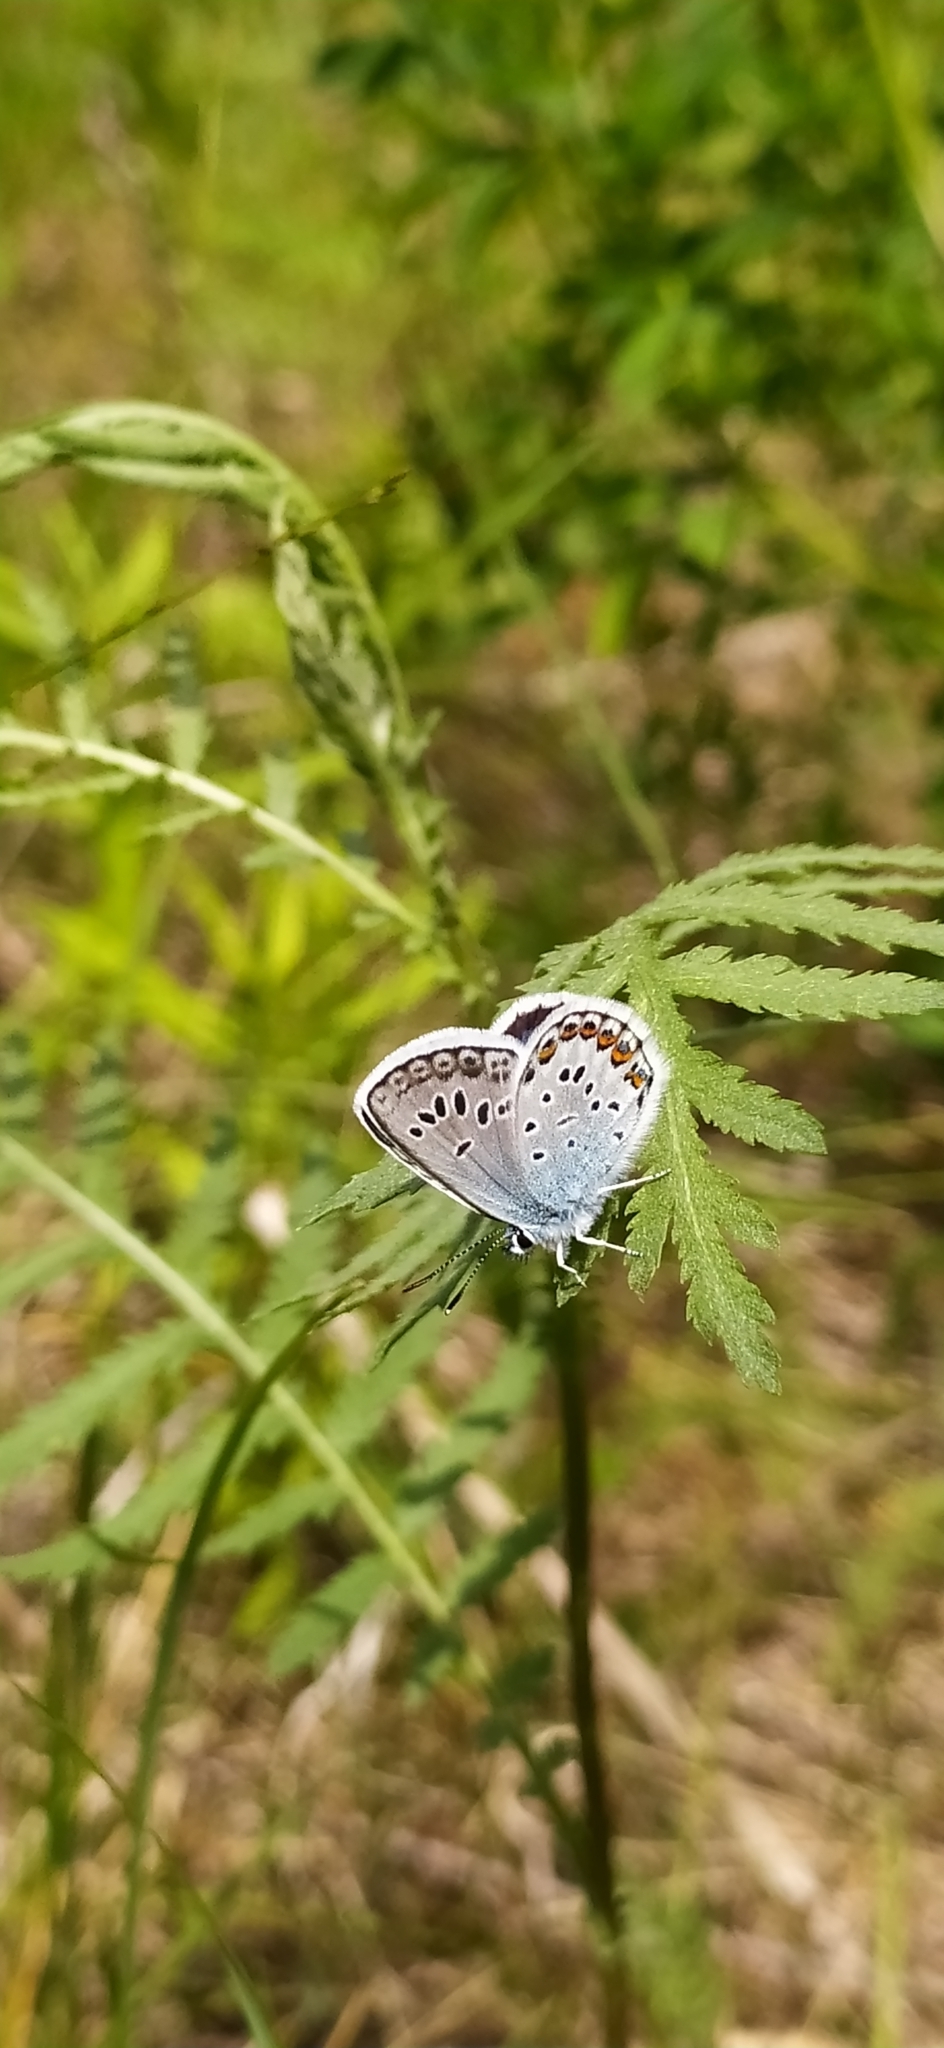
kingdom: Animalia
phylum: Arthropoda
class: Insecta
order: Lepidoptera
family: Lycaenidae
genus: Plebejus
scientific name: Plebejus argus
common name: Silver-studded blue
